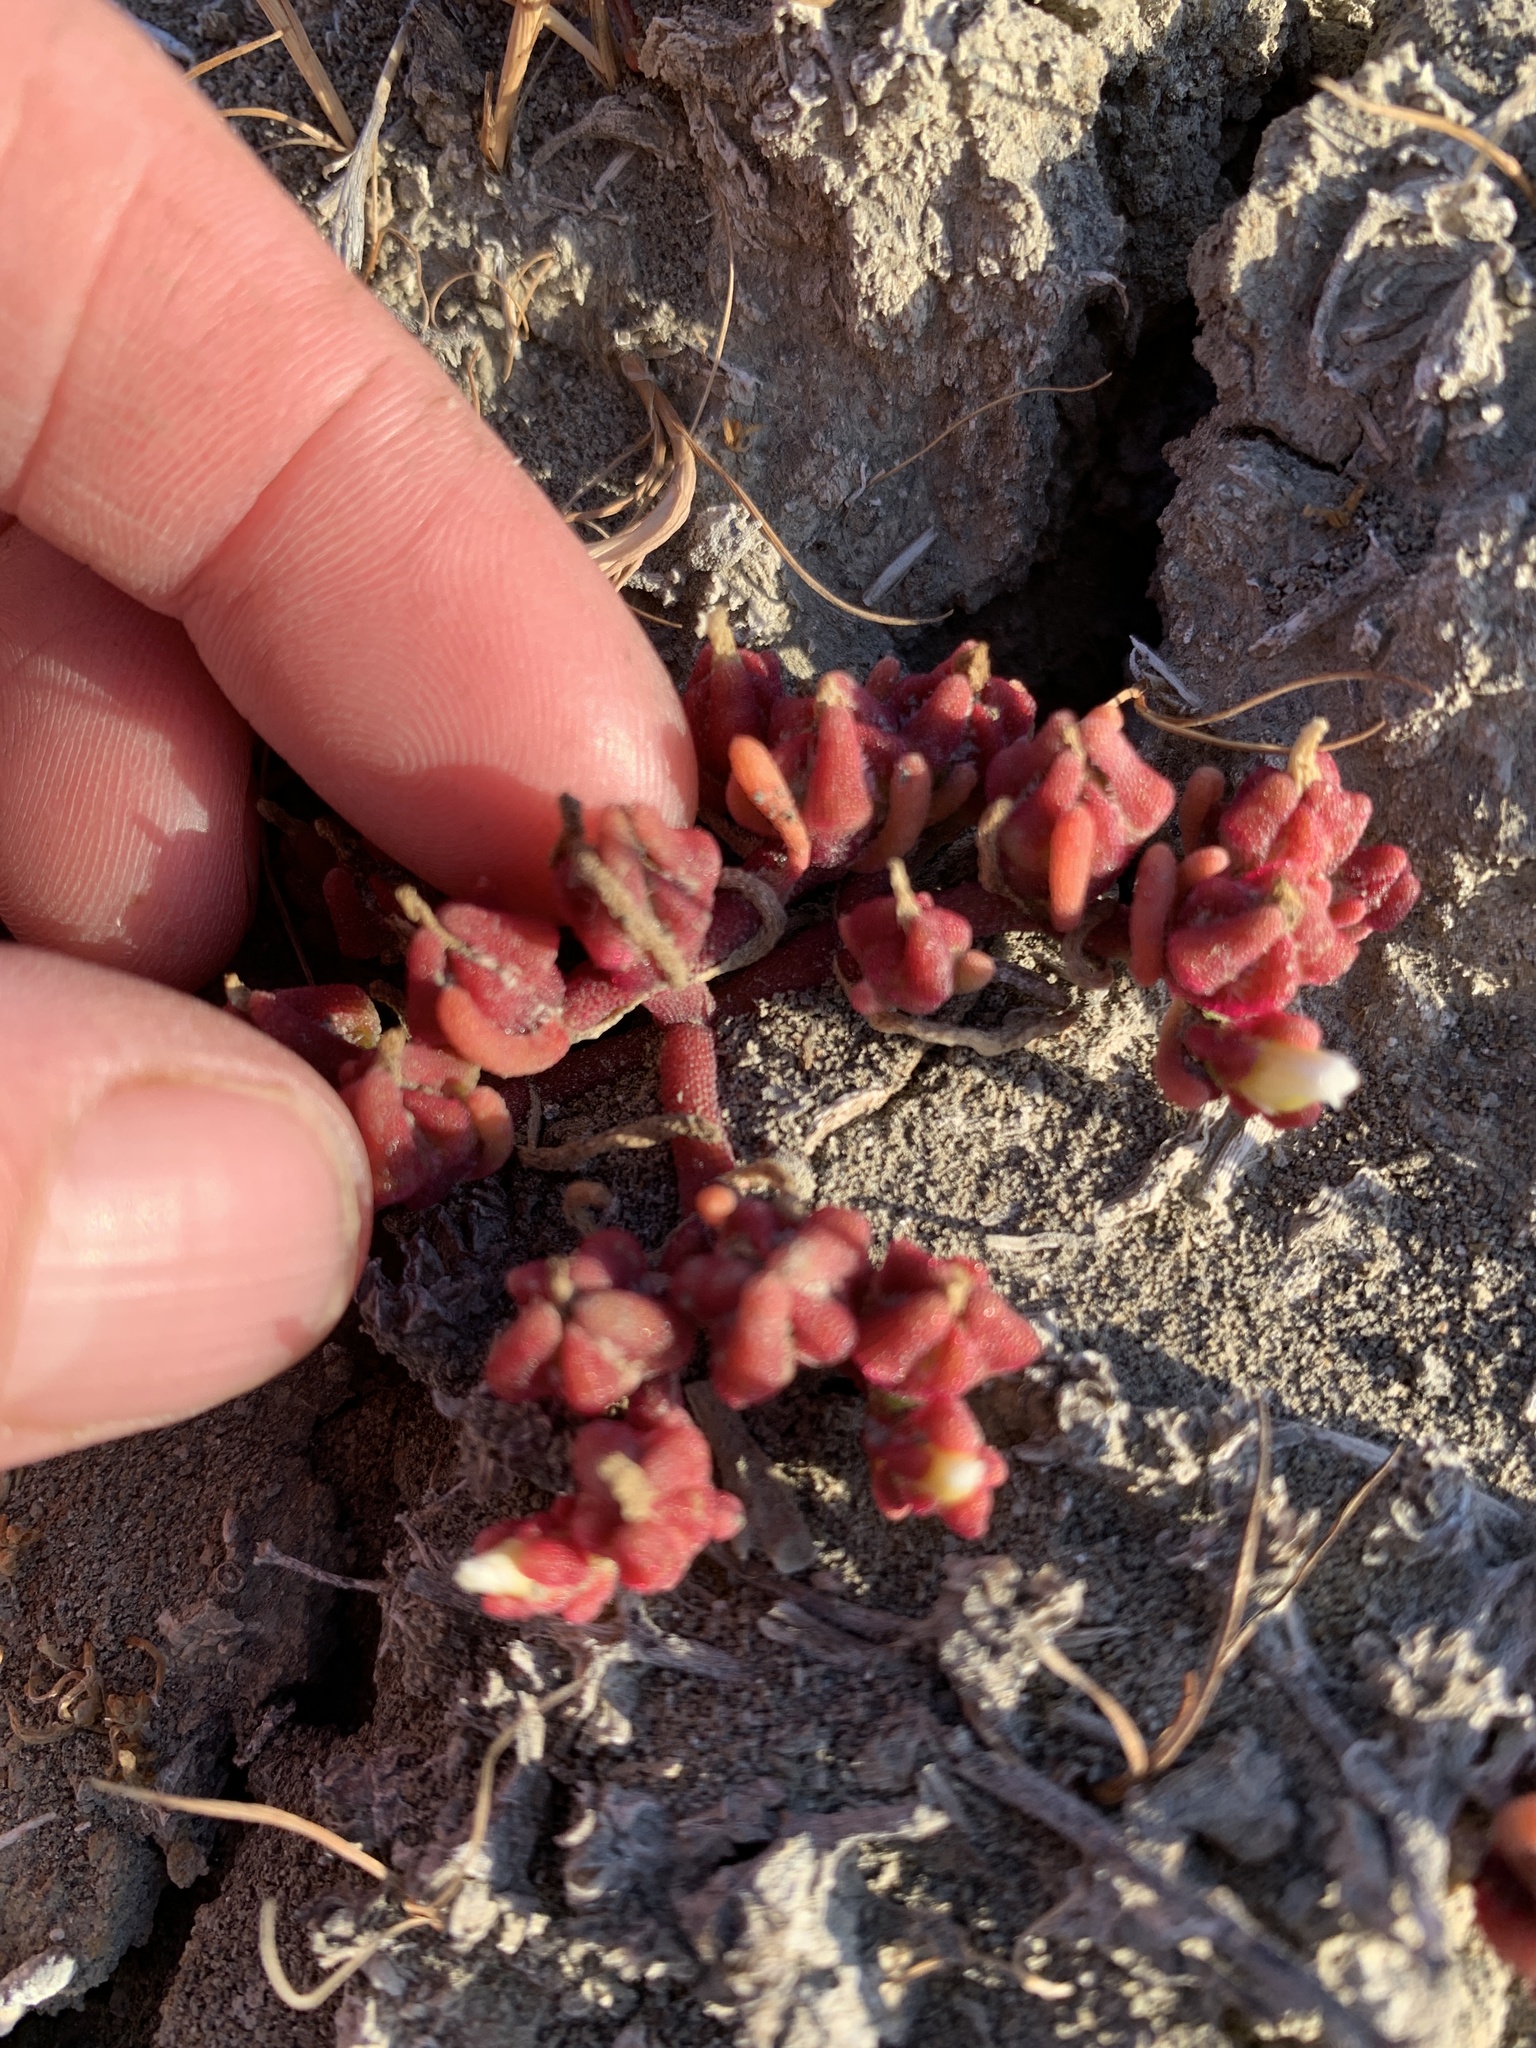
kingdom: Plantae
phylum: Tracheophyta
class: Magnoliopsida
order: Caryophyllales
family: Aizoaceae
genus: Mesembryanthemum
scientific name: Mesembryanthemum nodiflorum
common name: Slenderleaf iceplant
